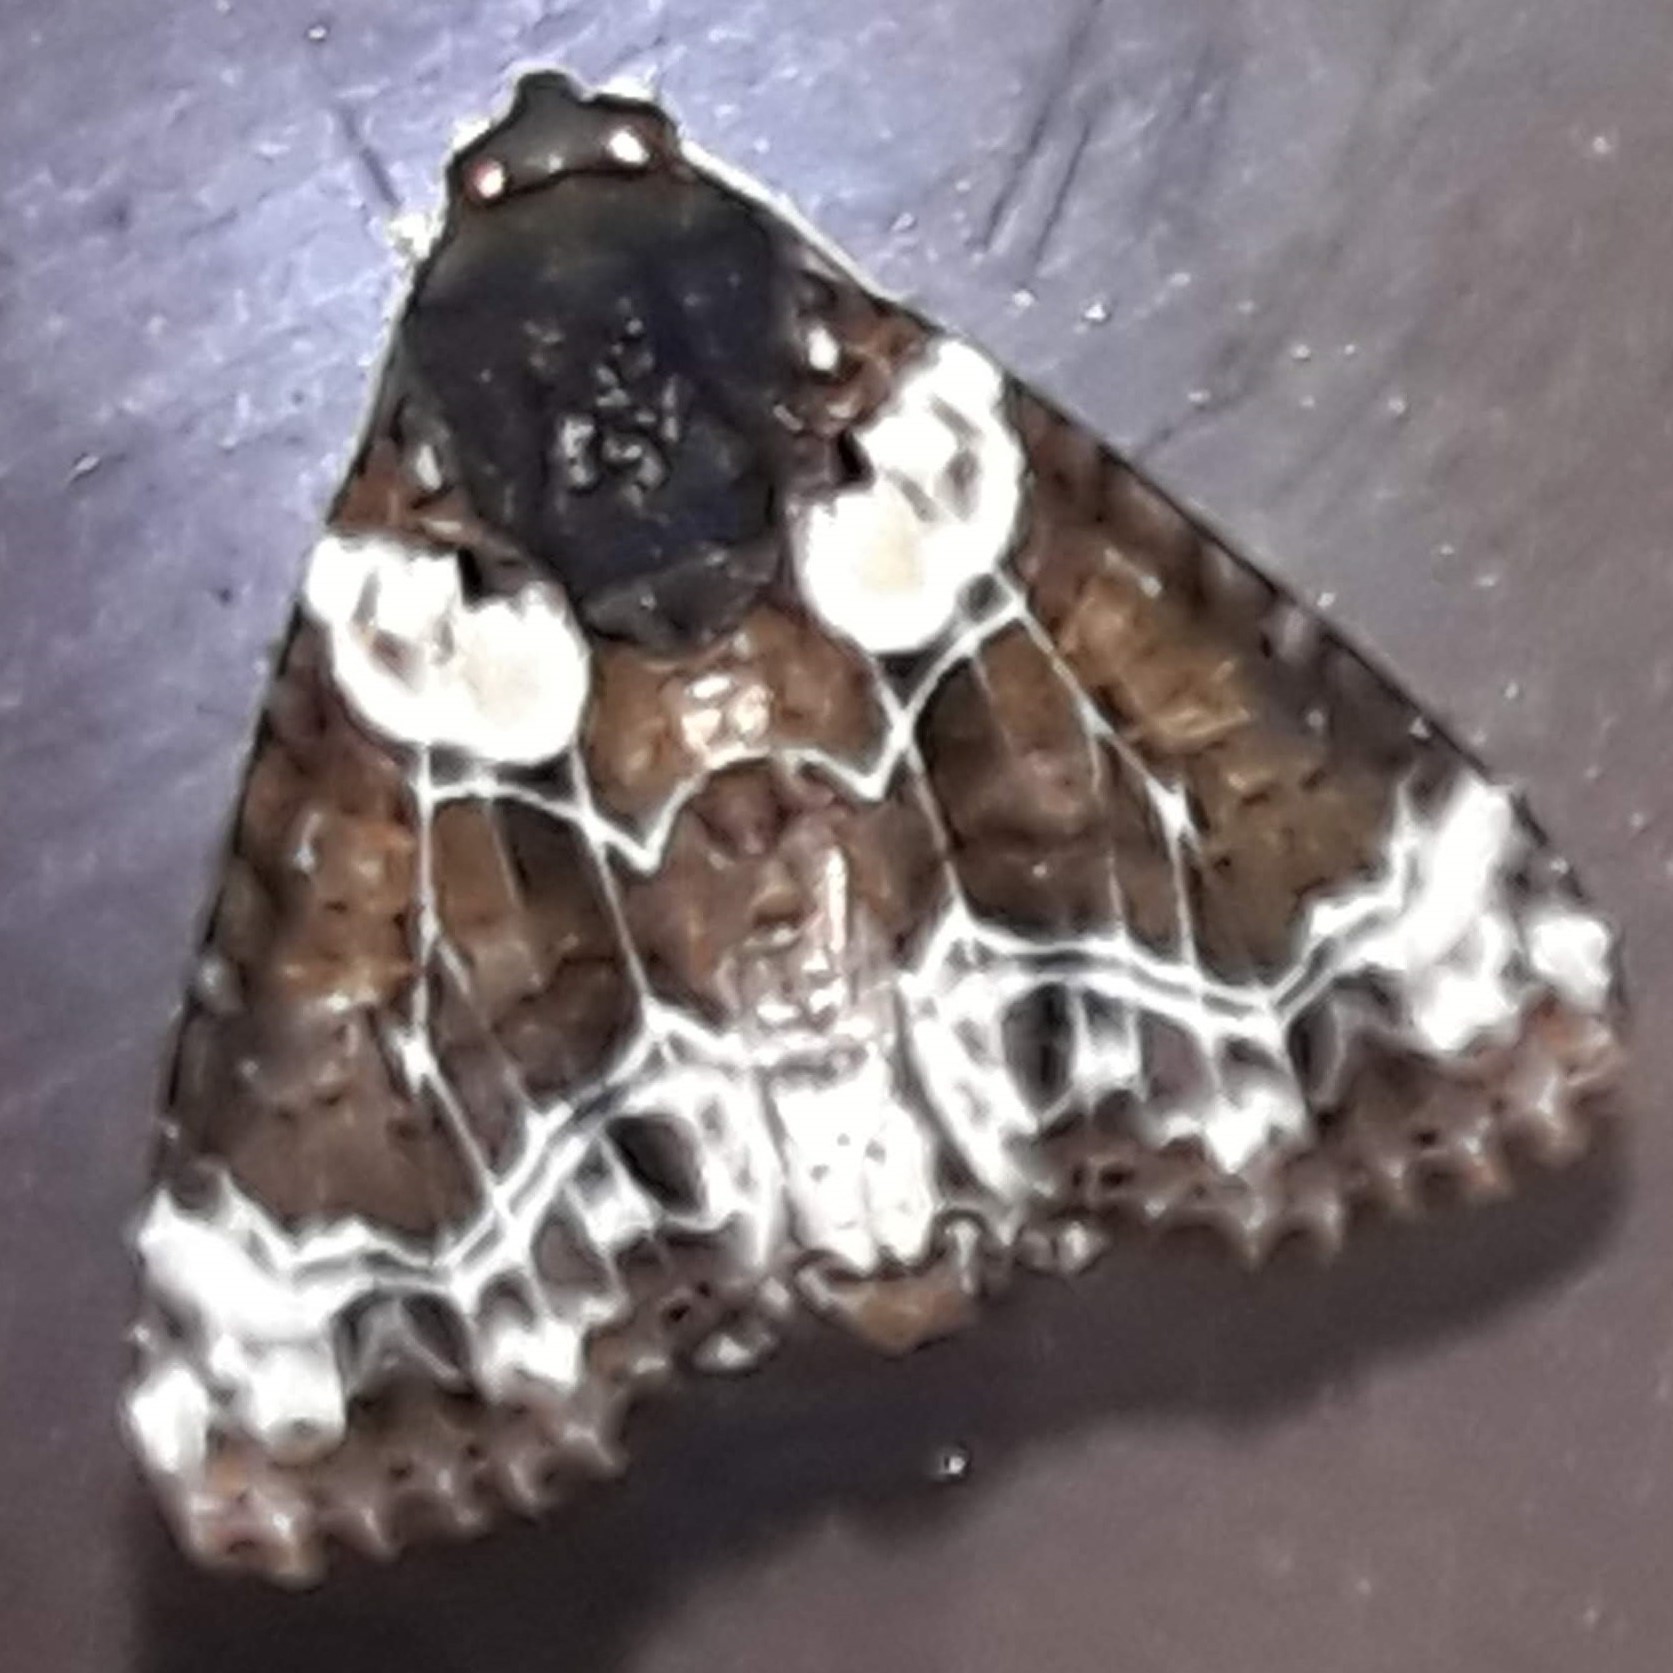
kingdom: Animalia
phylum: Arthropoda
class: Insecta
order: Lepidoptera
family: Noctuidae
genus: Cropia
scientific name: Cropia cedica
